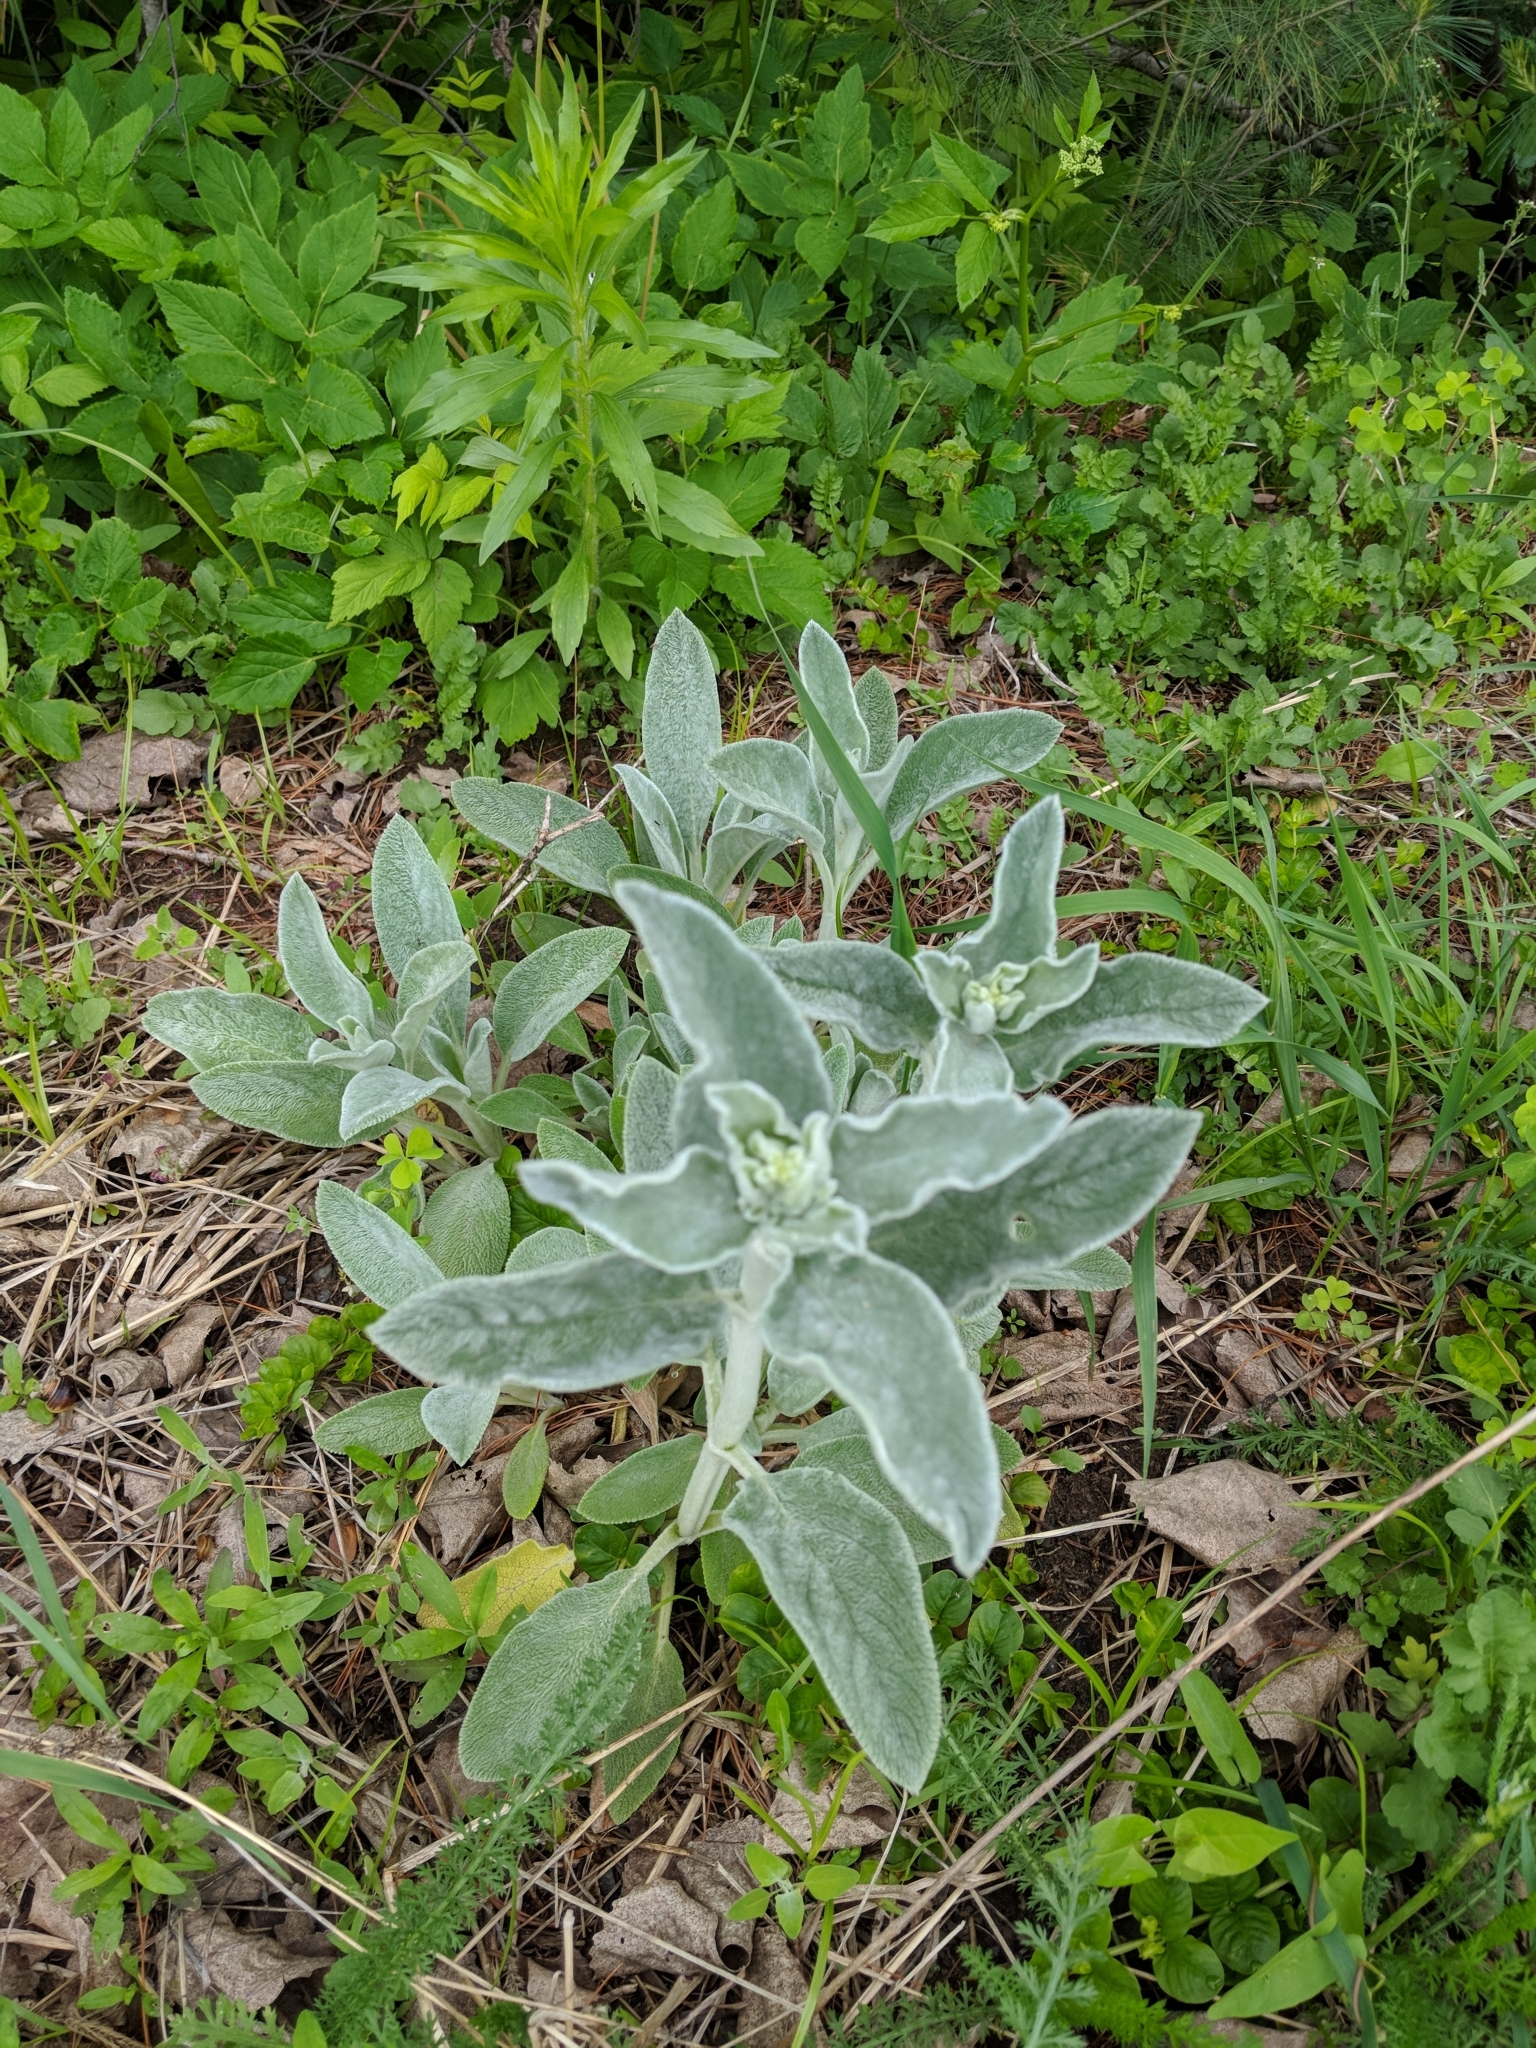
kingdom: Plantae
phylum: Tracheophyta
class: Magnoliopsida
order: Lamiales
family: Lamiaceae
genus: Stachys
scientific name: Stachys byzantina
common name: Lamb's-ear
